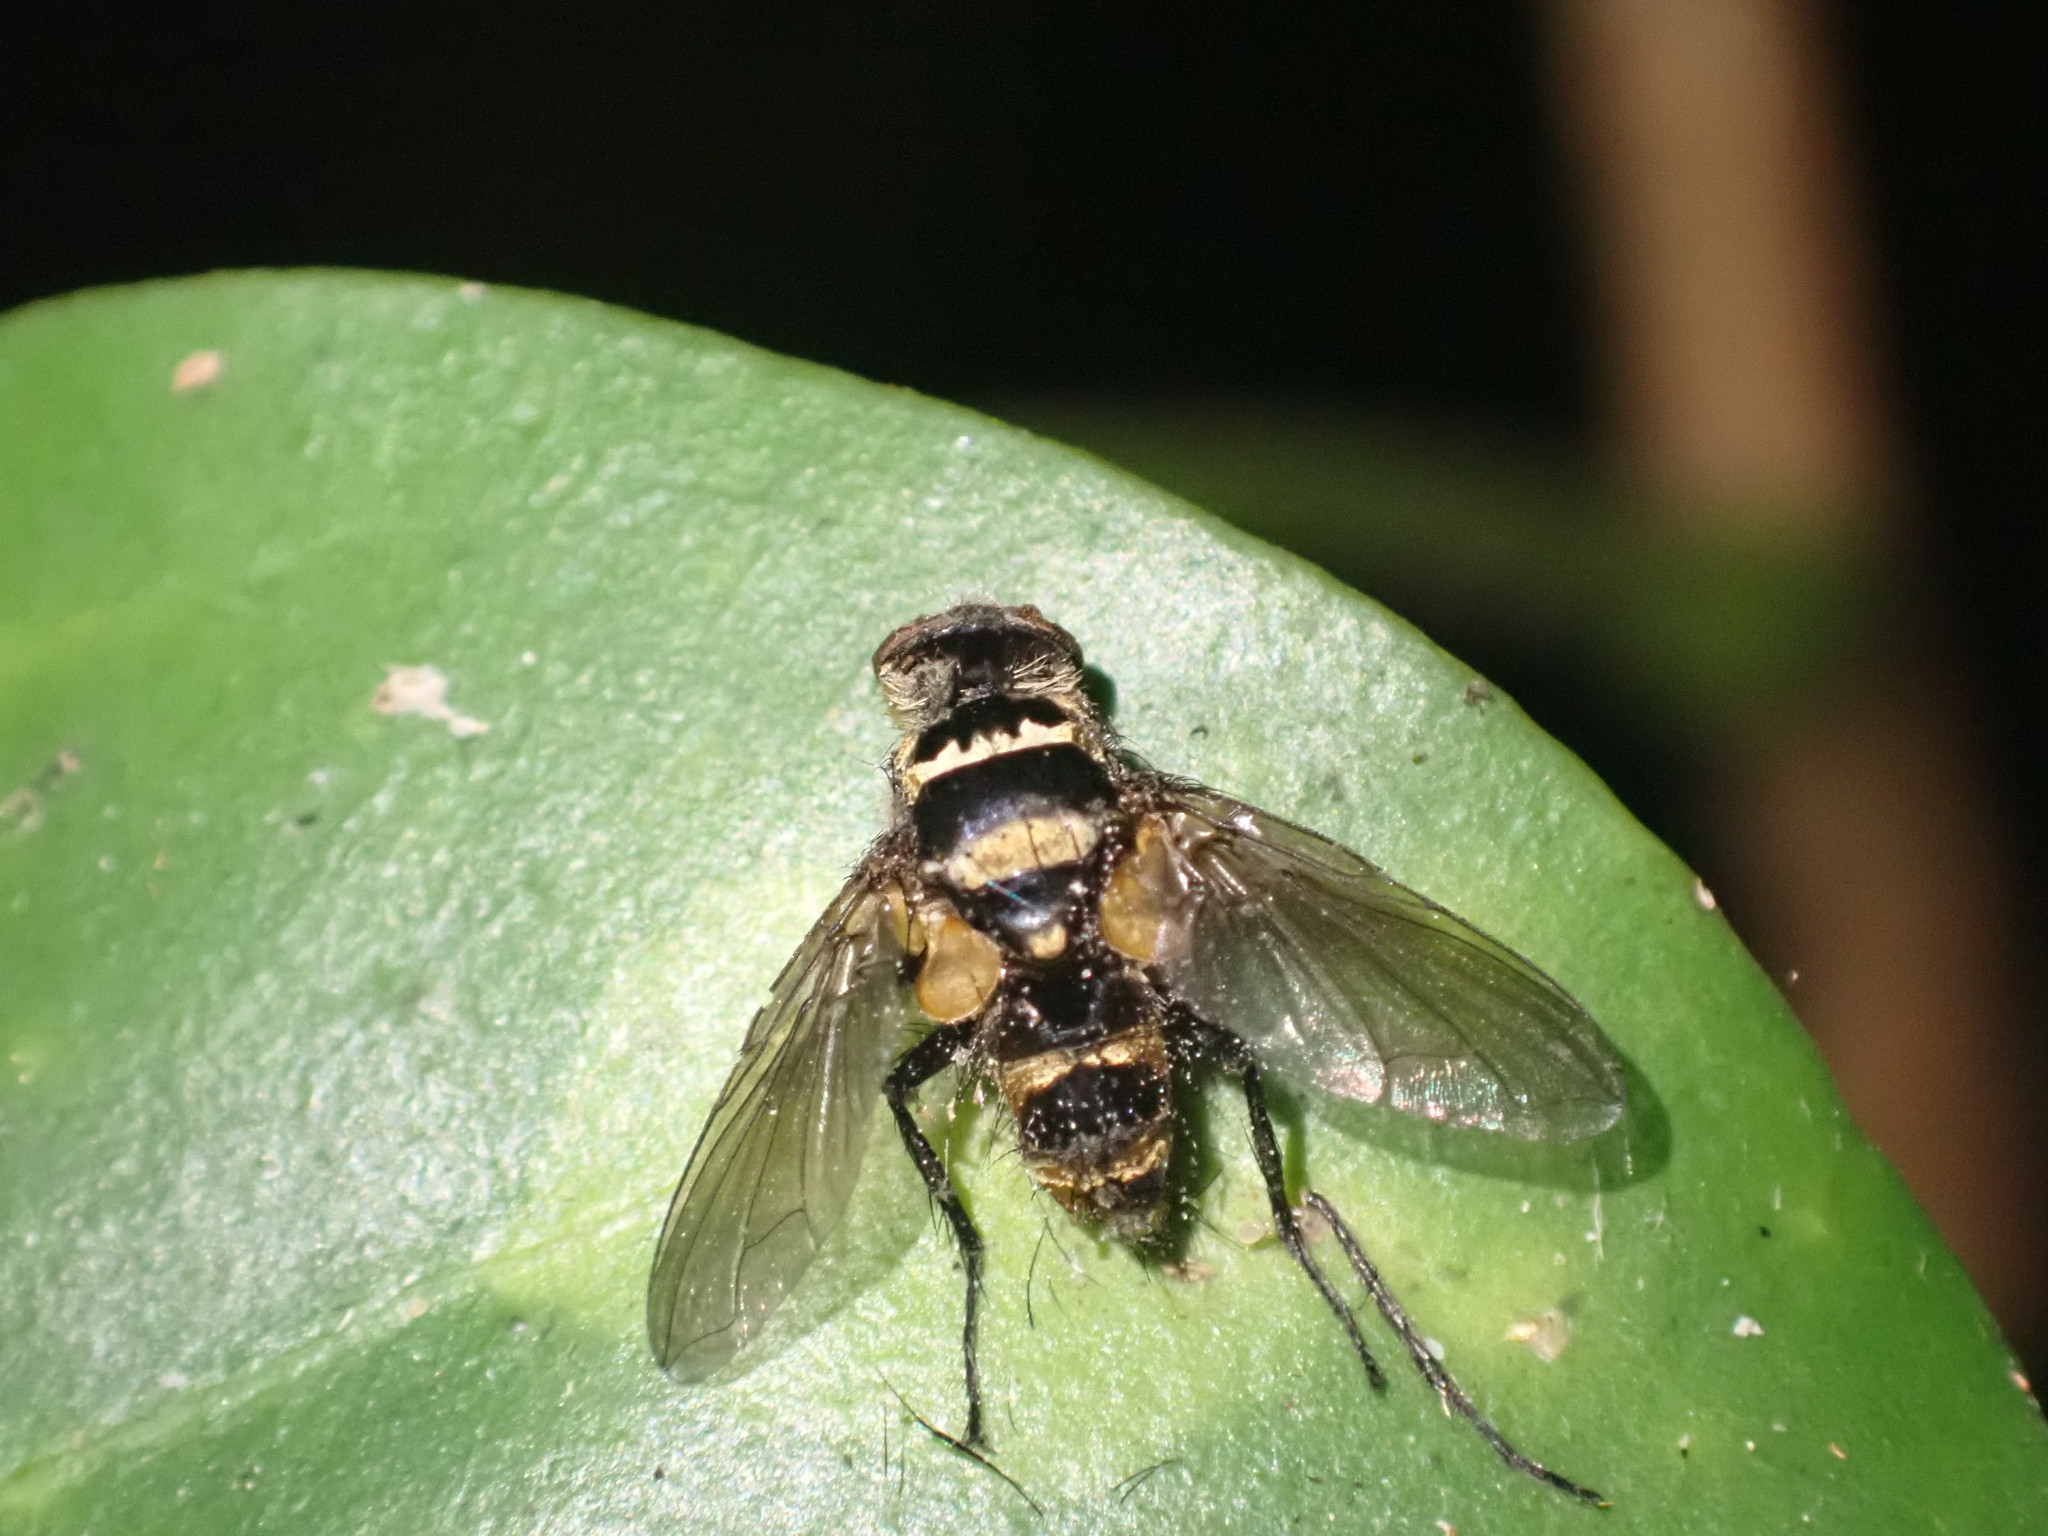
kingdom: Animalia
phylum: Arthropoda
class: Insecta
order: Diptera
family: Tachinidae
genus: Trigonospila
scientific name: Trigonospila brevifacies
